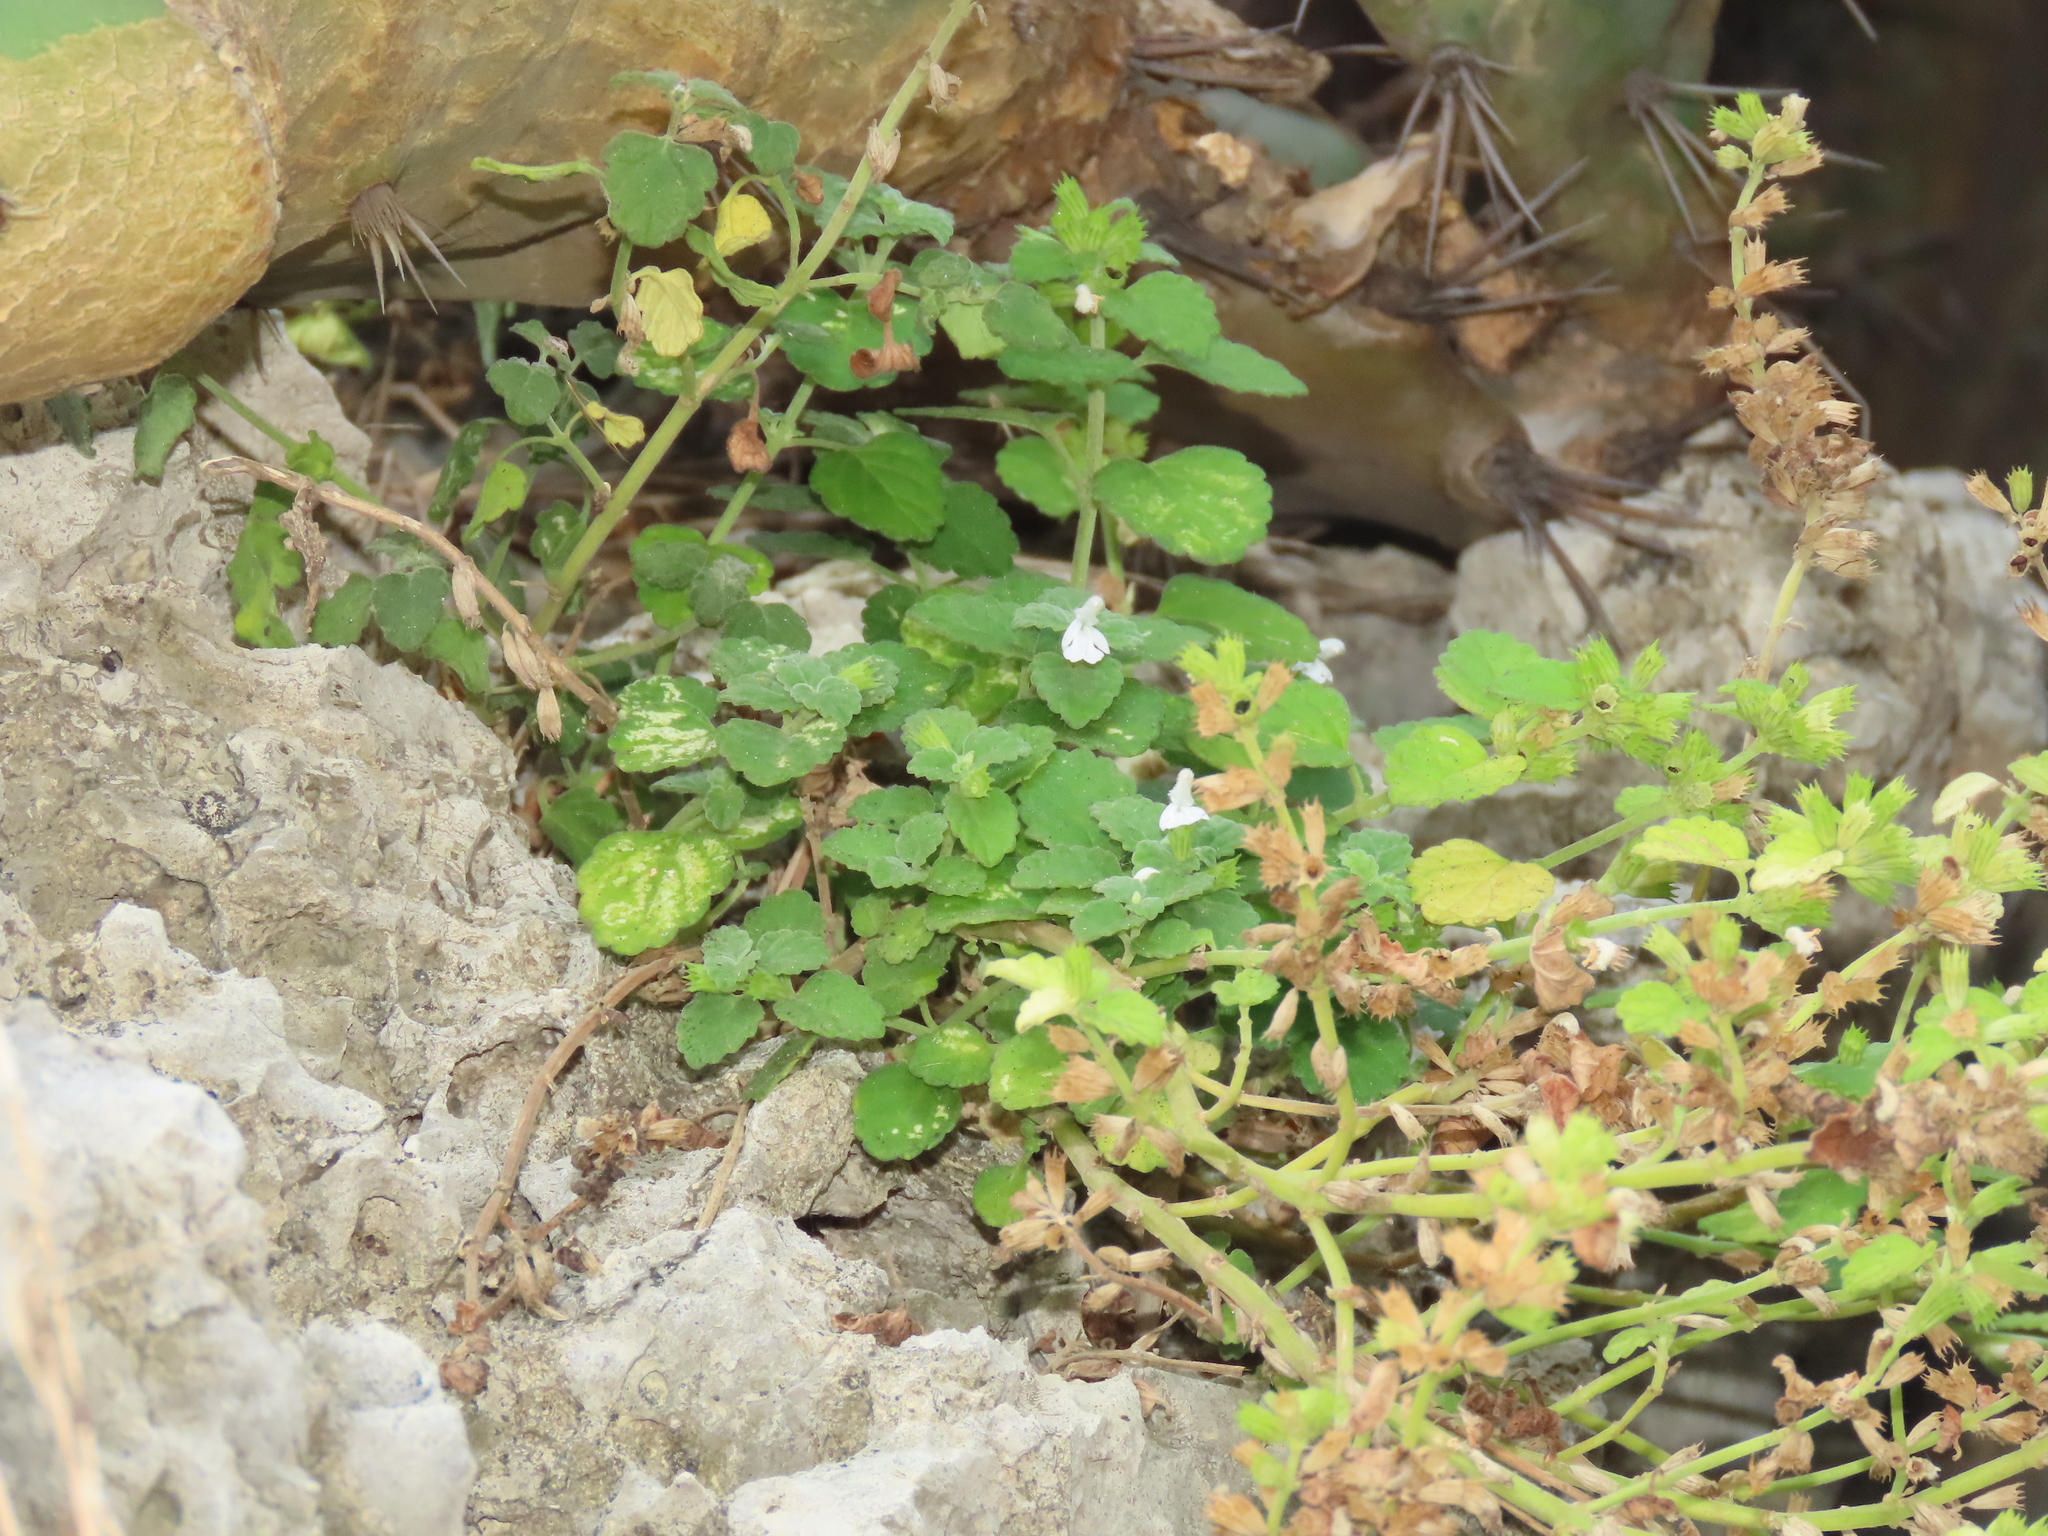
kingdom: Plantae
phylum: Tracheophyta
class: Magnoliopsida
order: Lamiales
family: Lamiaceae
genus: Leucas
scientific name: Leucas chinensis
